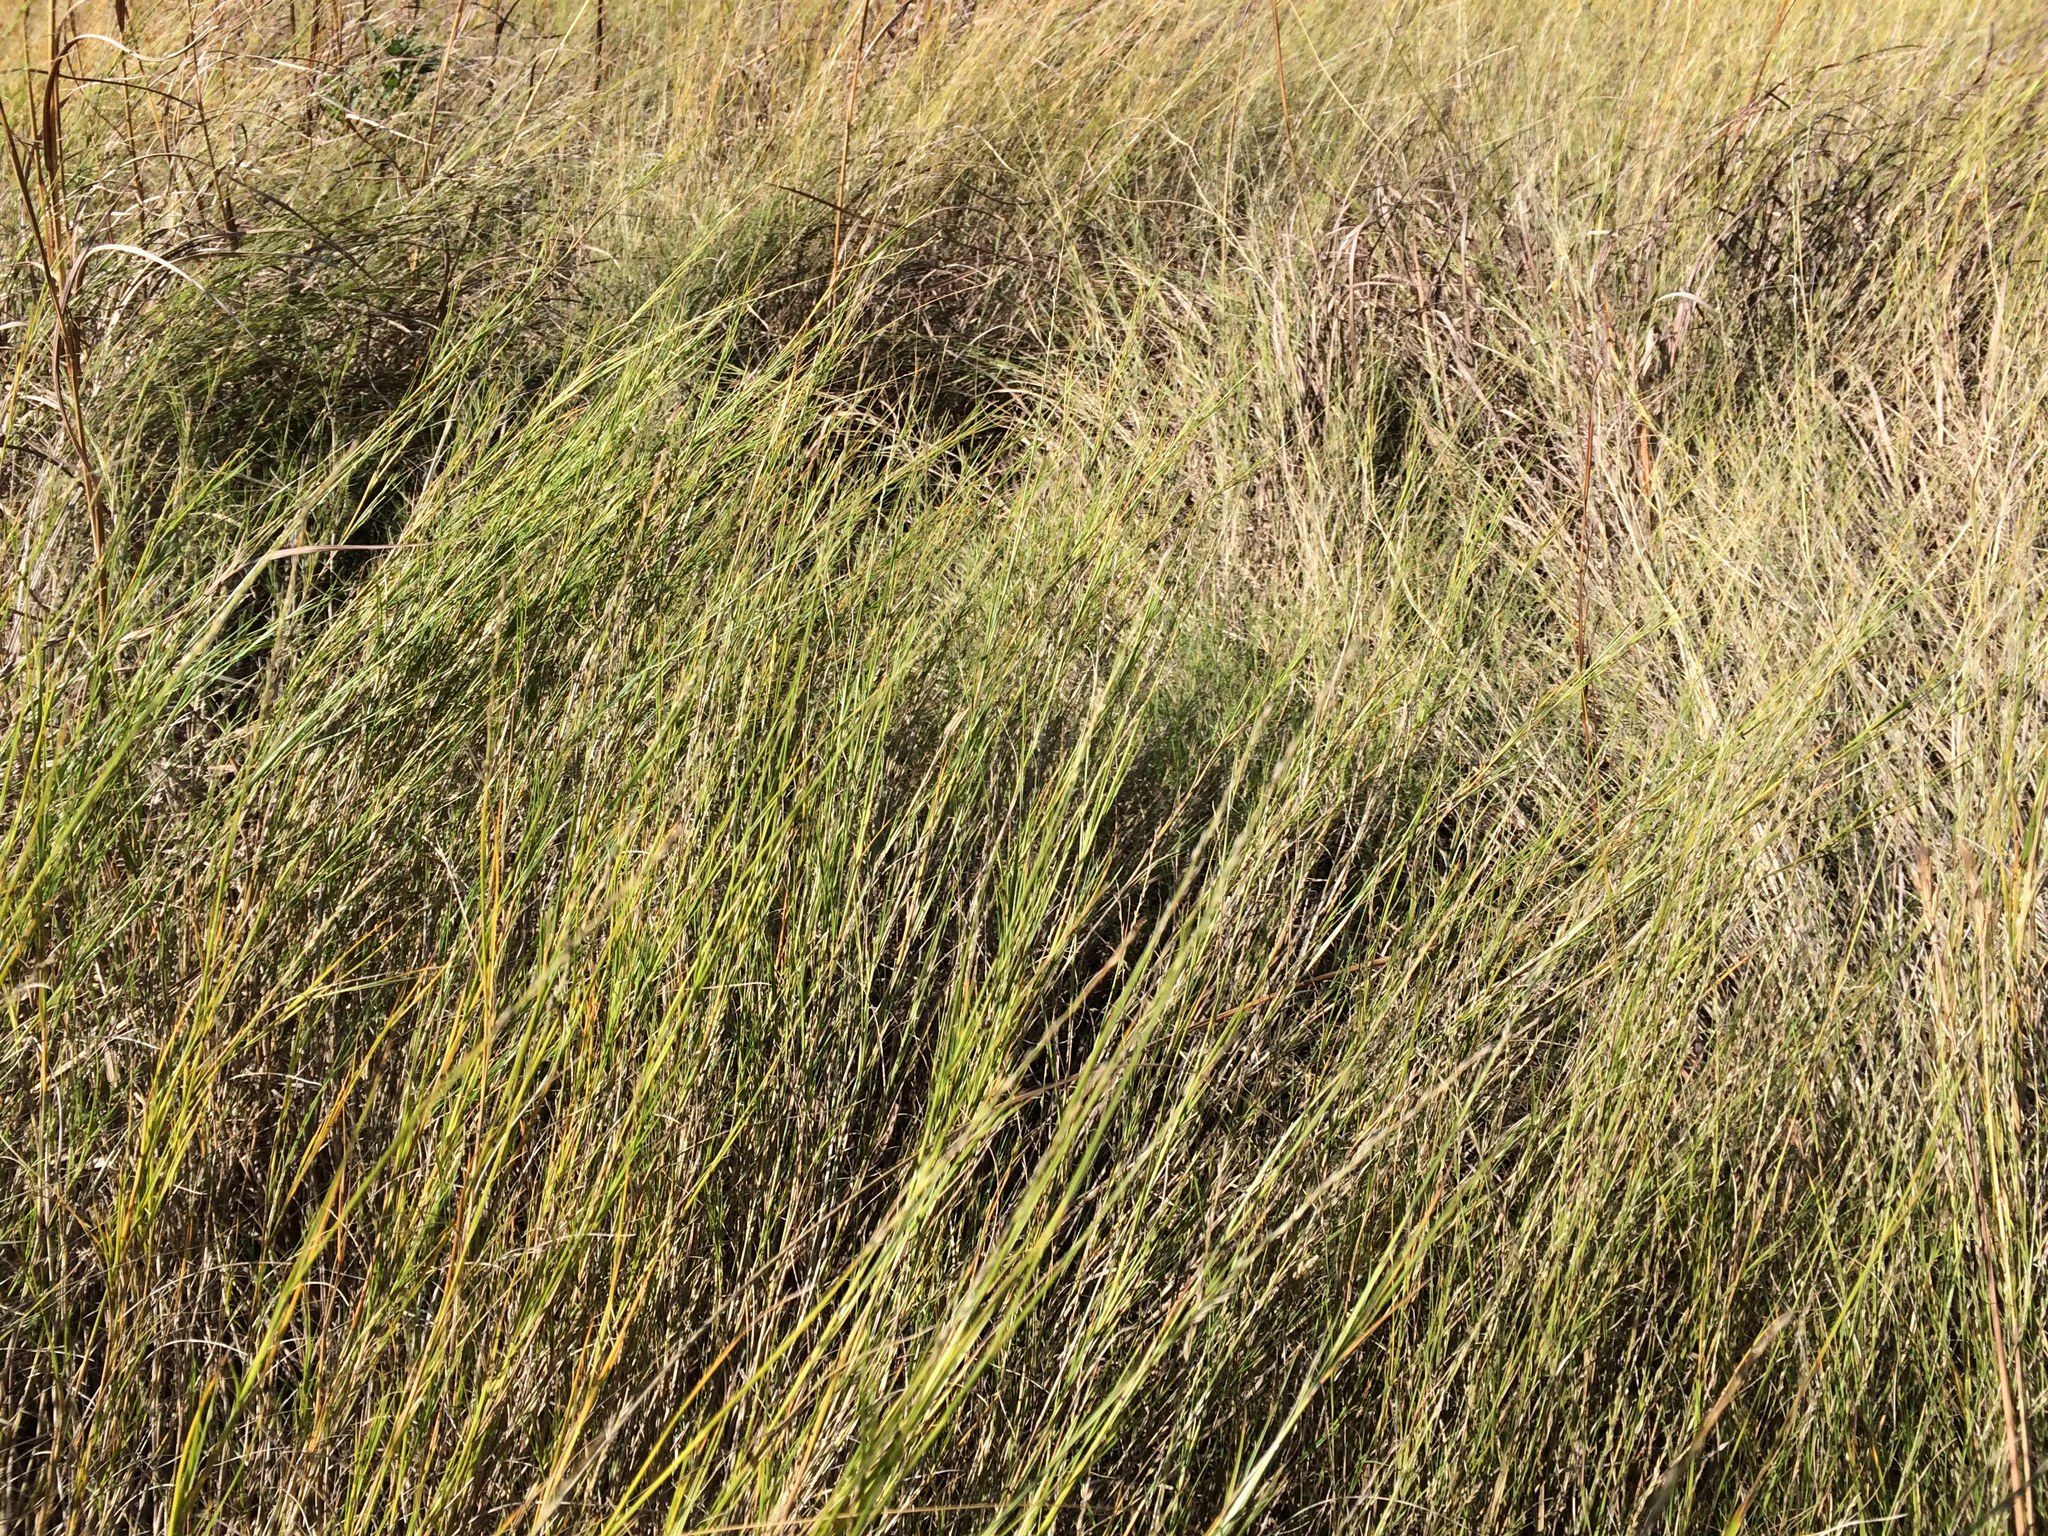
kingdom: Plantae
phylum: Tracheophyta
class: Liliopsida
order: Poales
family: Poaceae
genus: Muhlenbergia
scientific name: Muhlenbergia cuspidata
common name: Plains muhly
